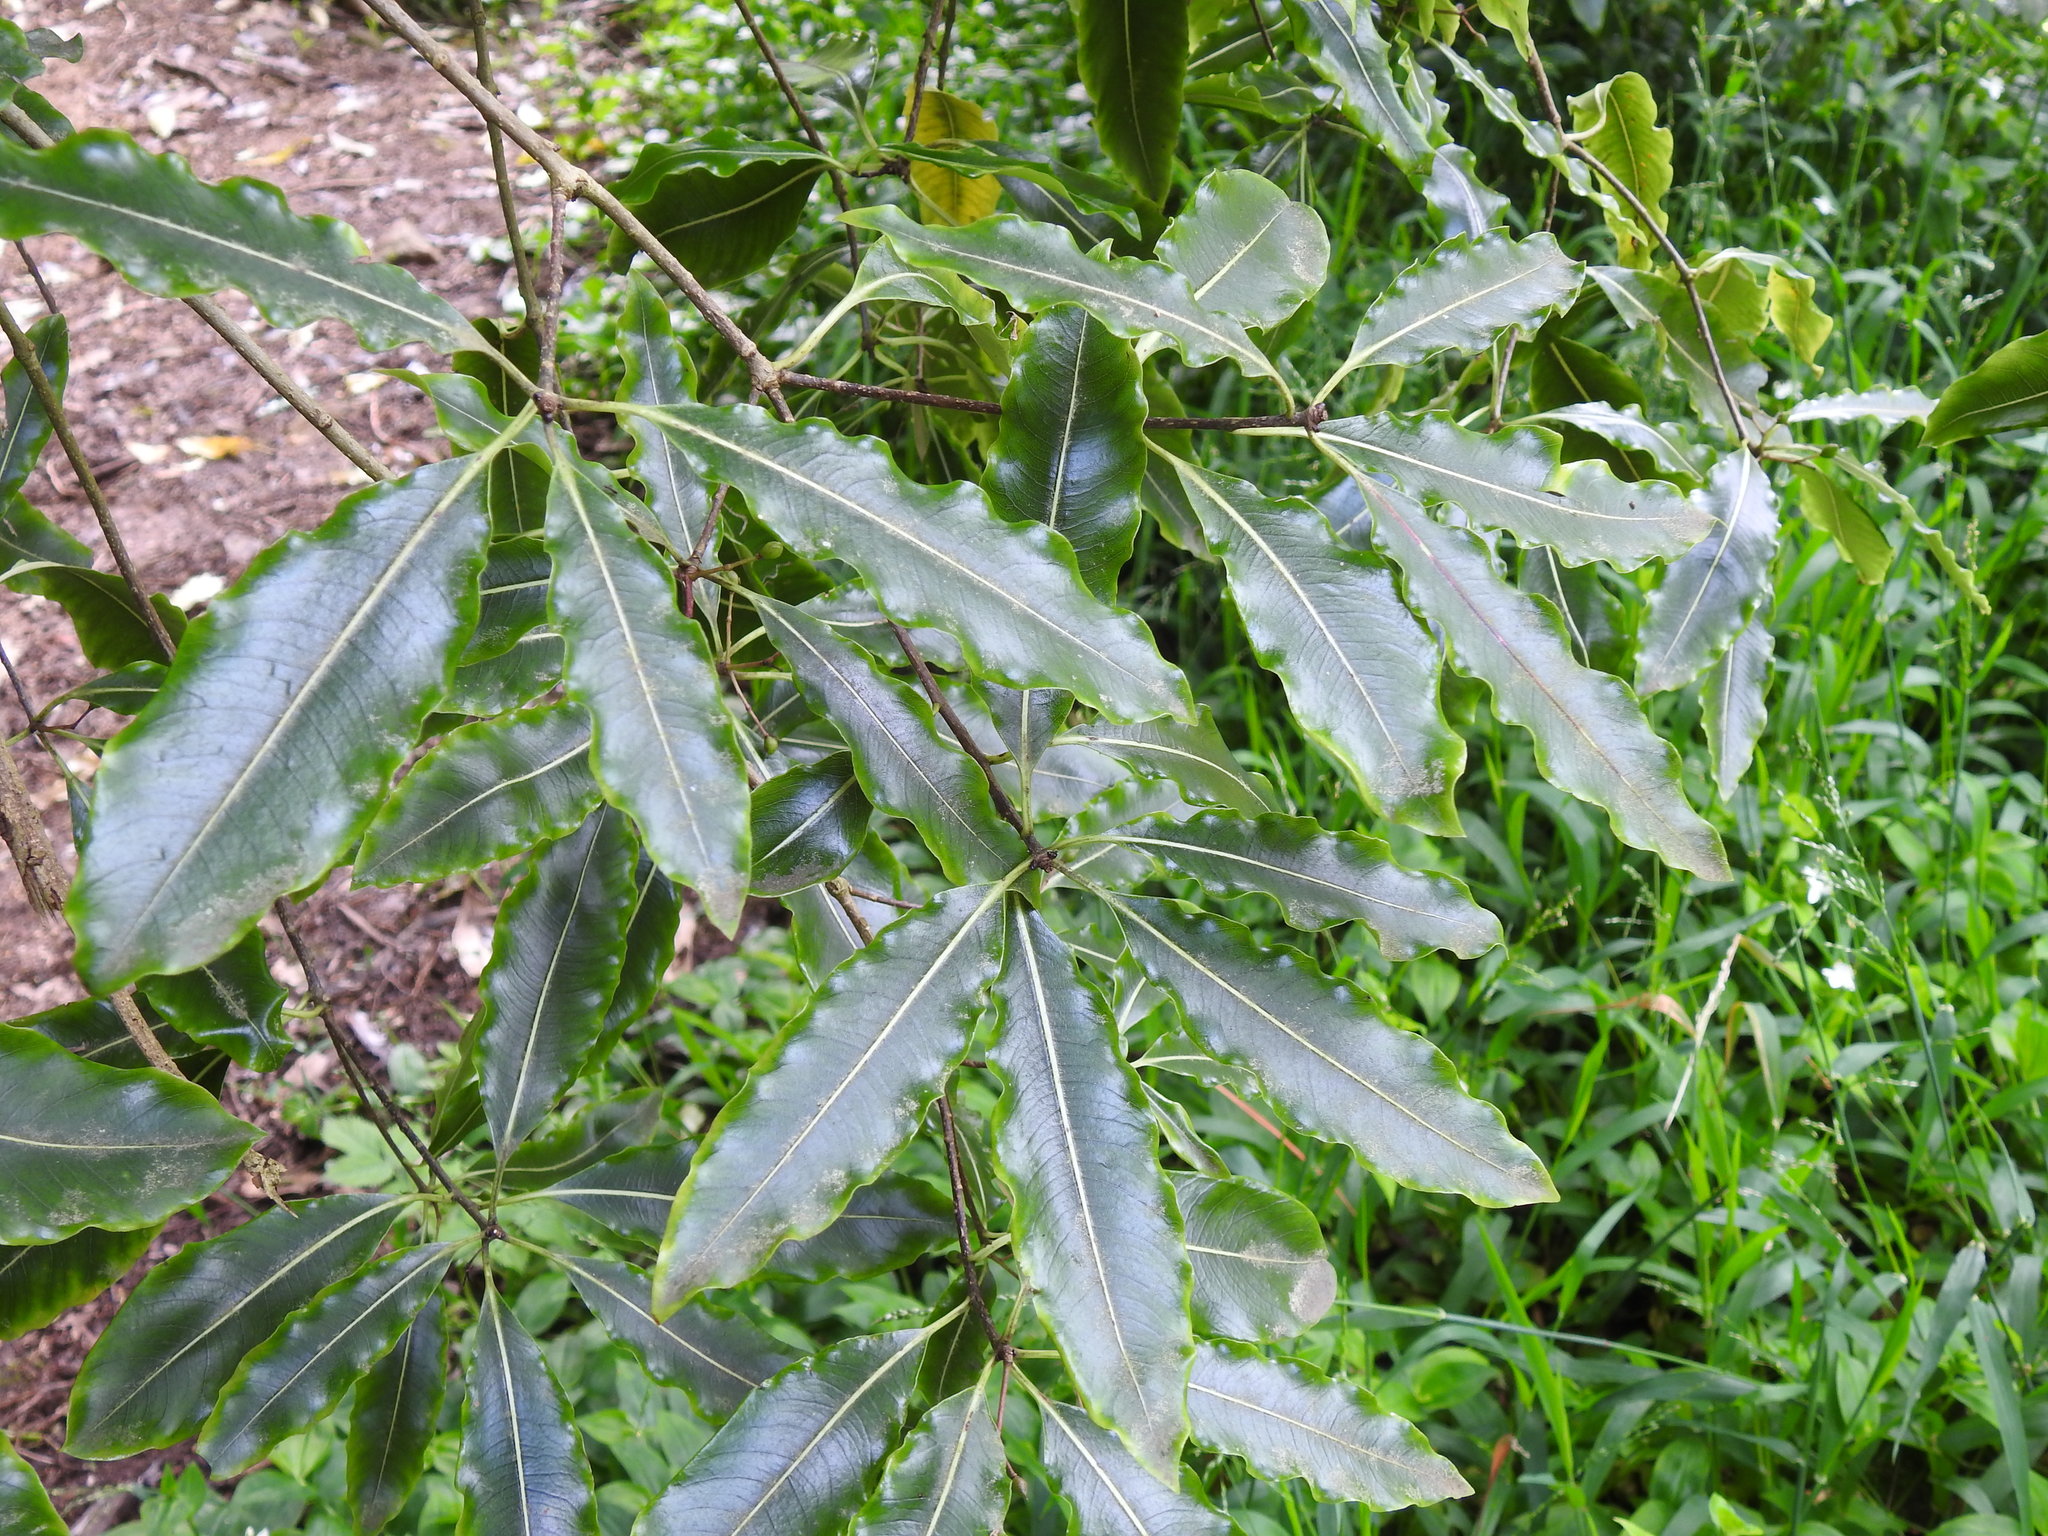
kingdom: Plantae
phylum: Tracheophyta
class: Magnoliopsida
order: Apiales
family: Pittosporaceae
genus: Pittosporum
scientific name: Pittosporum undulatum
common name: Australian cheesewood
